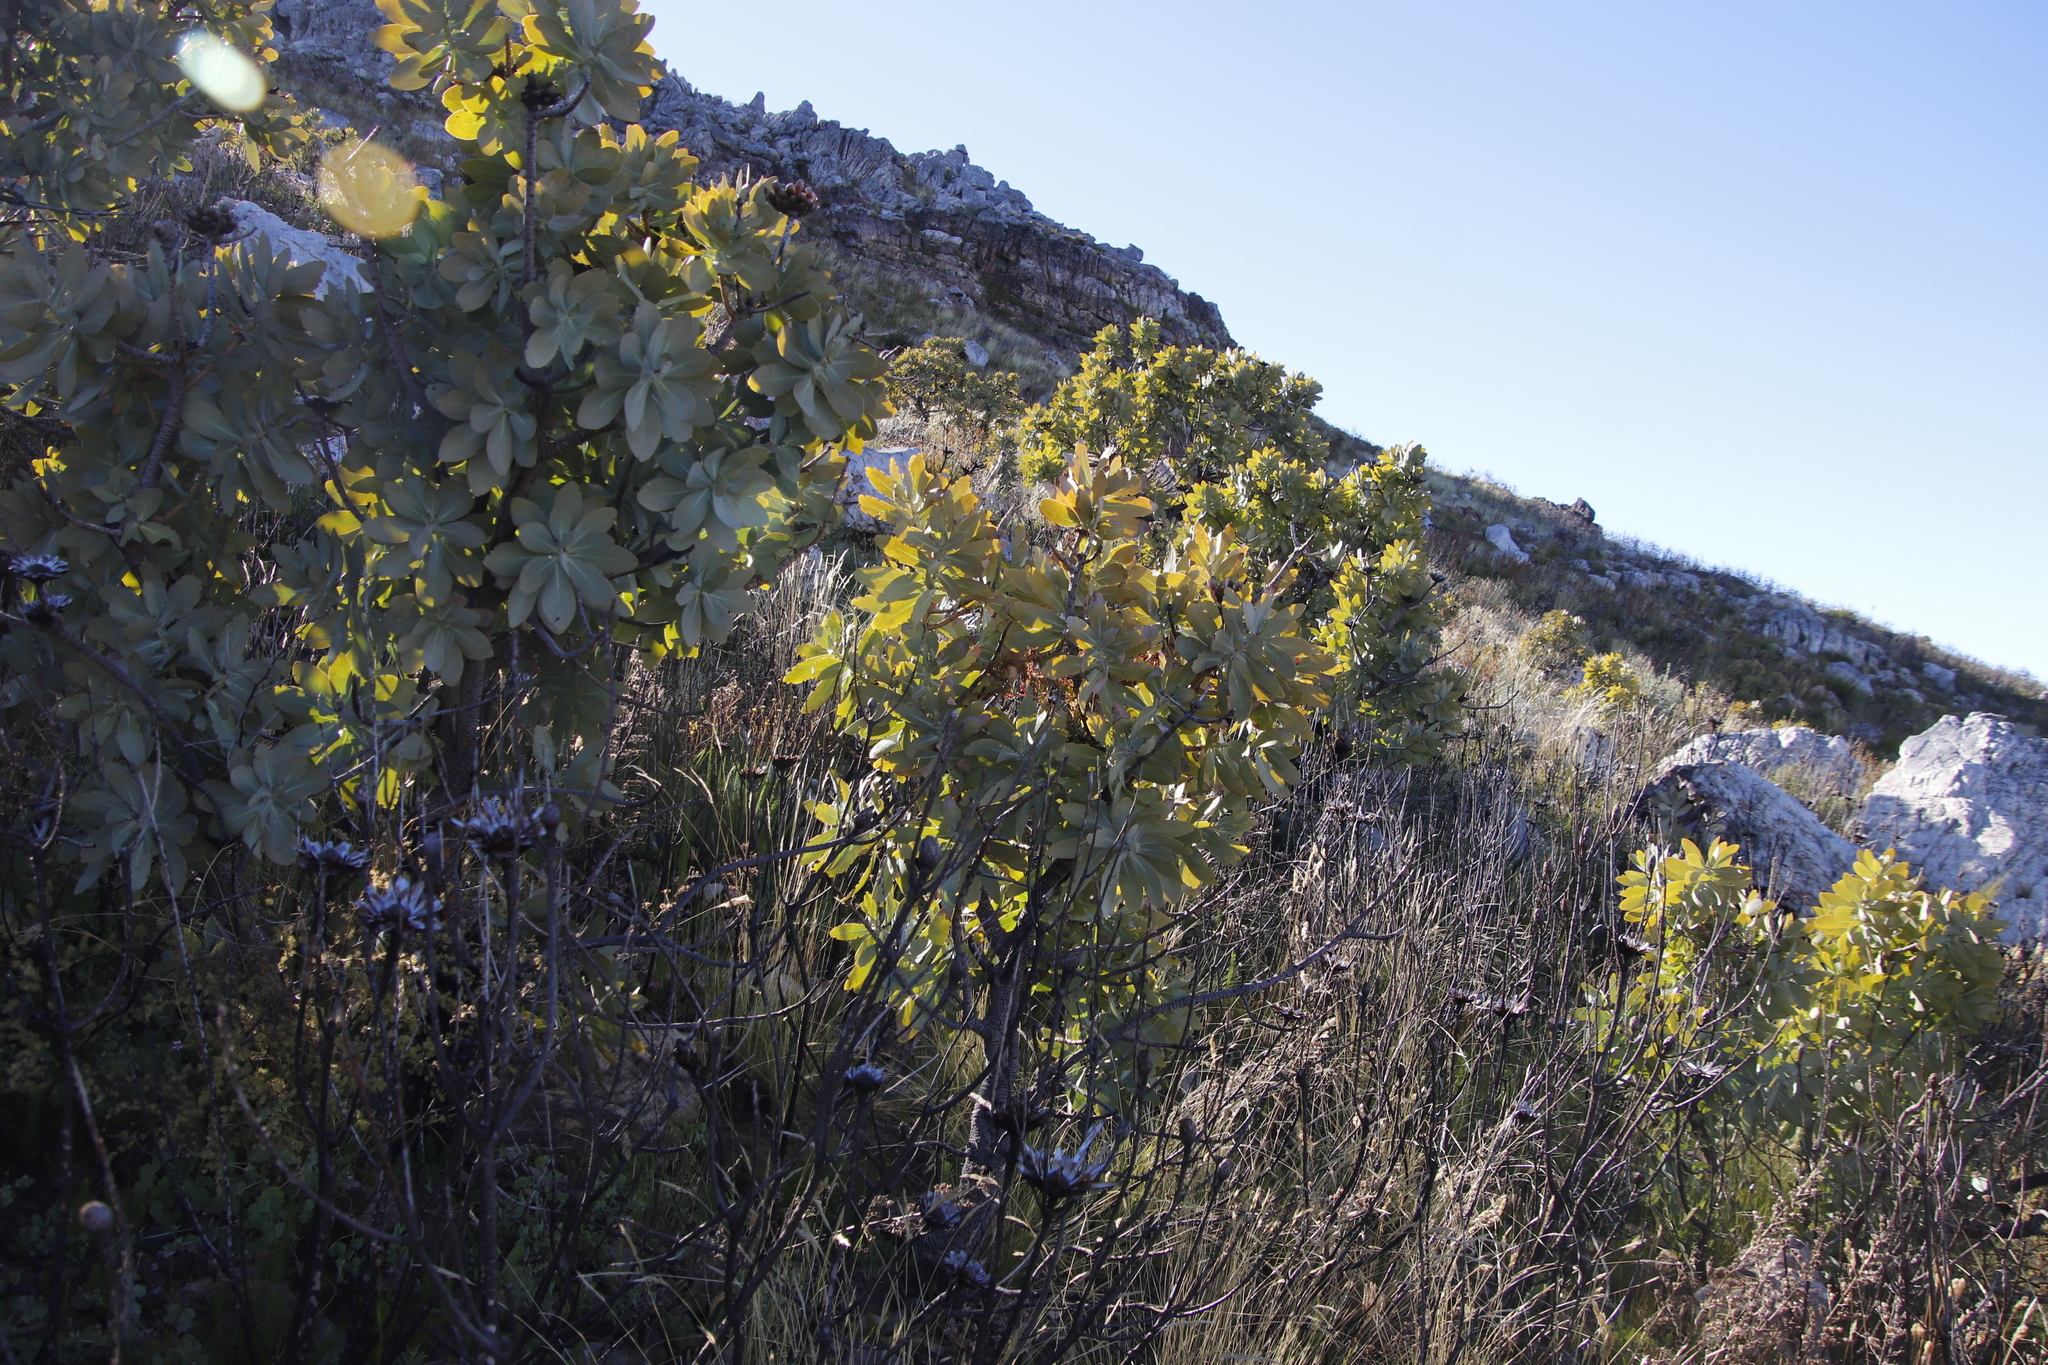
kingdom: Plantae
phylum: Tracheophyta
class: Magnoliopsida
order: Proteales
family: Proteaceae
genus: Protea
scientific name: Protea nitida
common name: Tree protea
